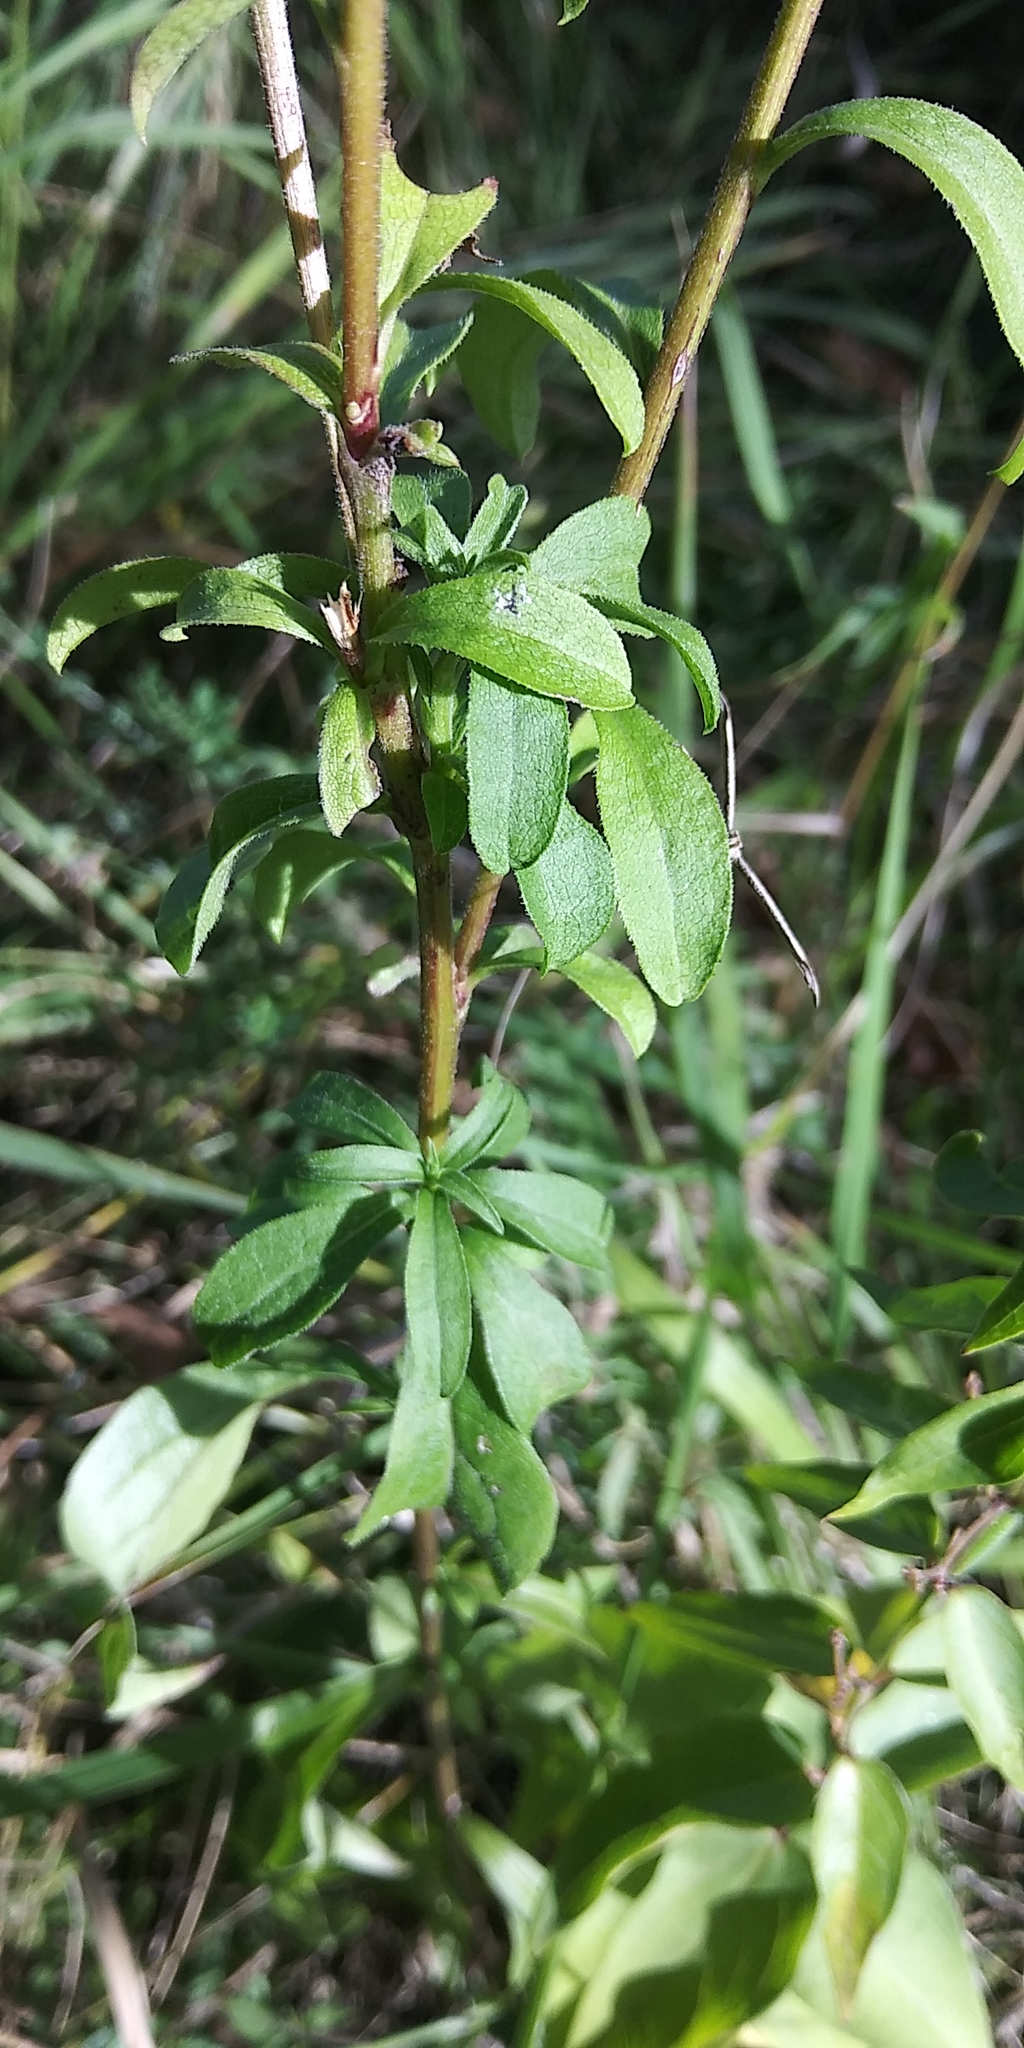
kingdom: Plantae
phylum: Tracheophyta
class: Magnoliopsida
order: Asterales
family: Asteraceae
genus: Solidago
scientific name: Solidago virgaurea
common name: Goldenrod
